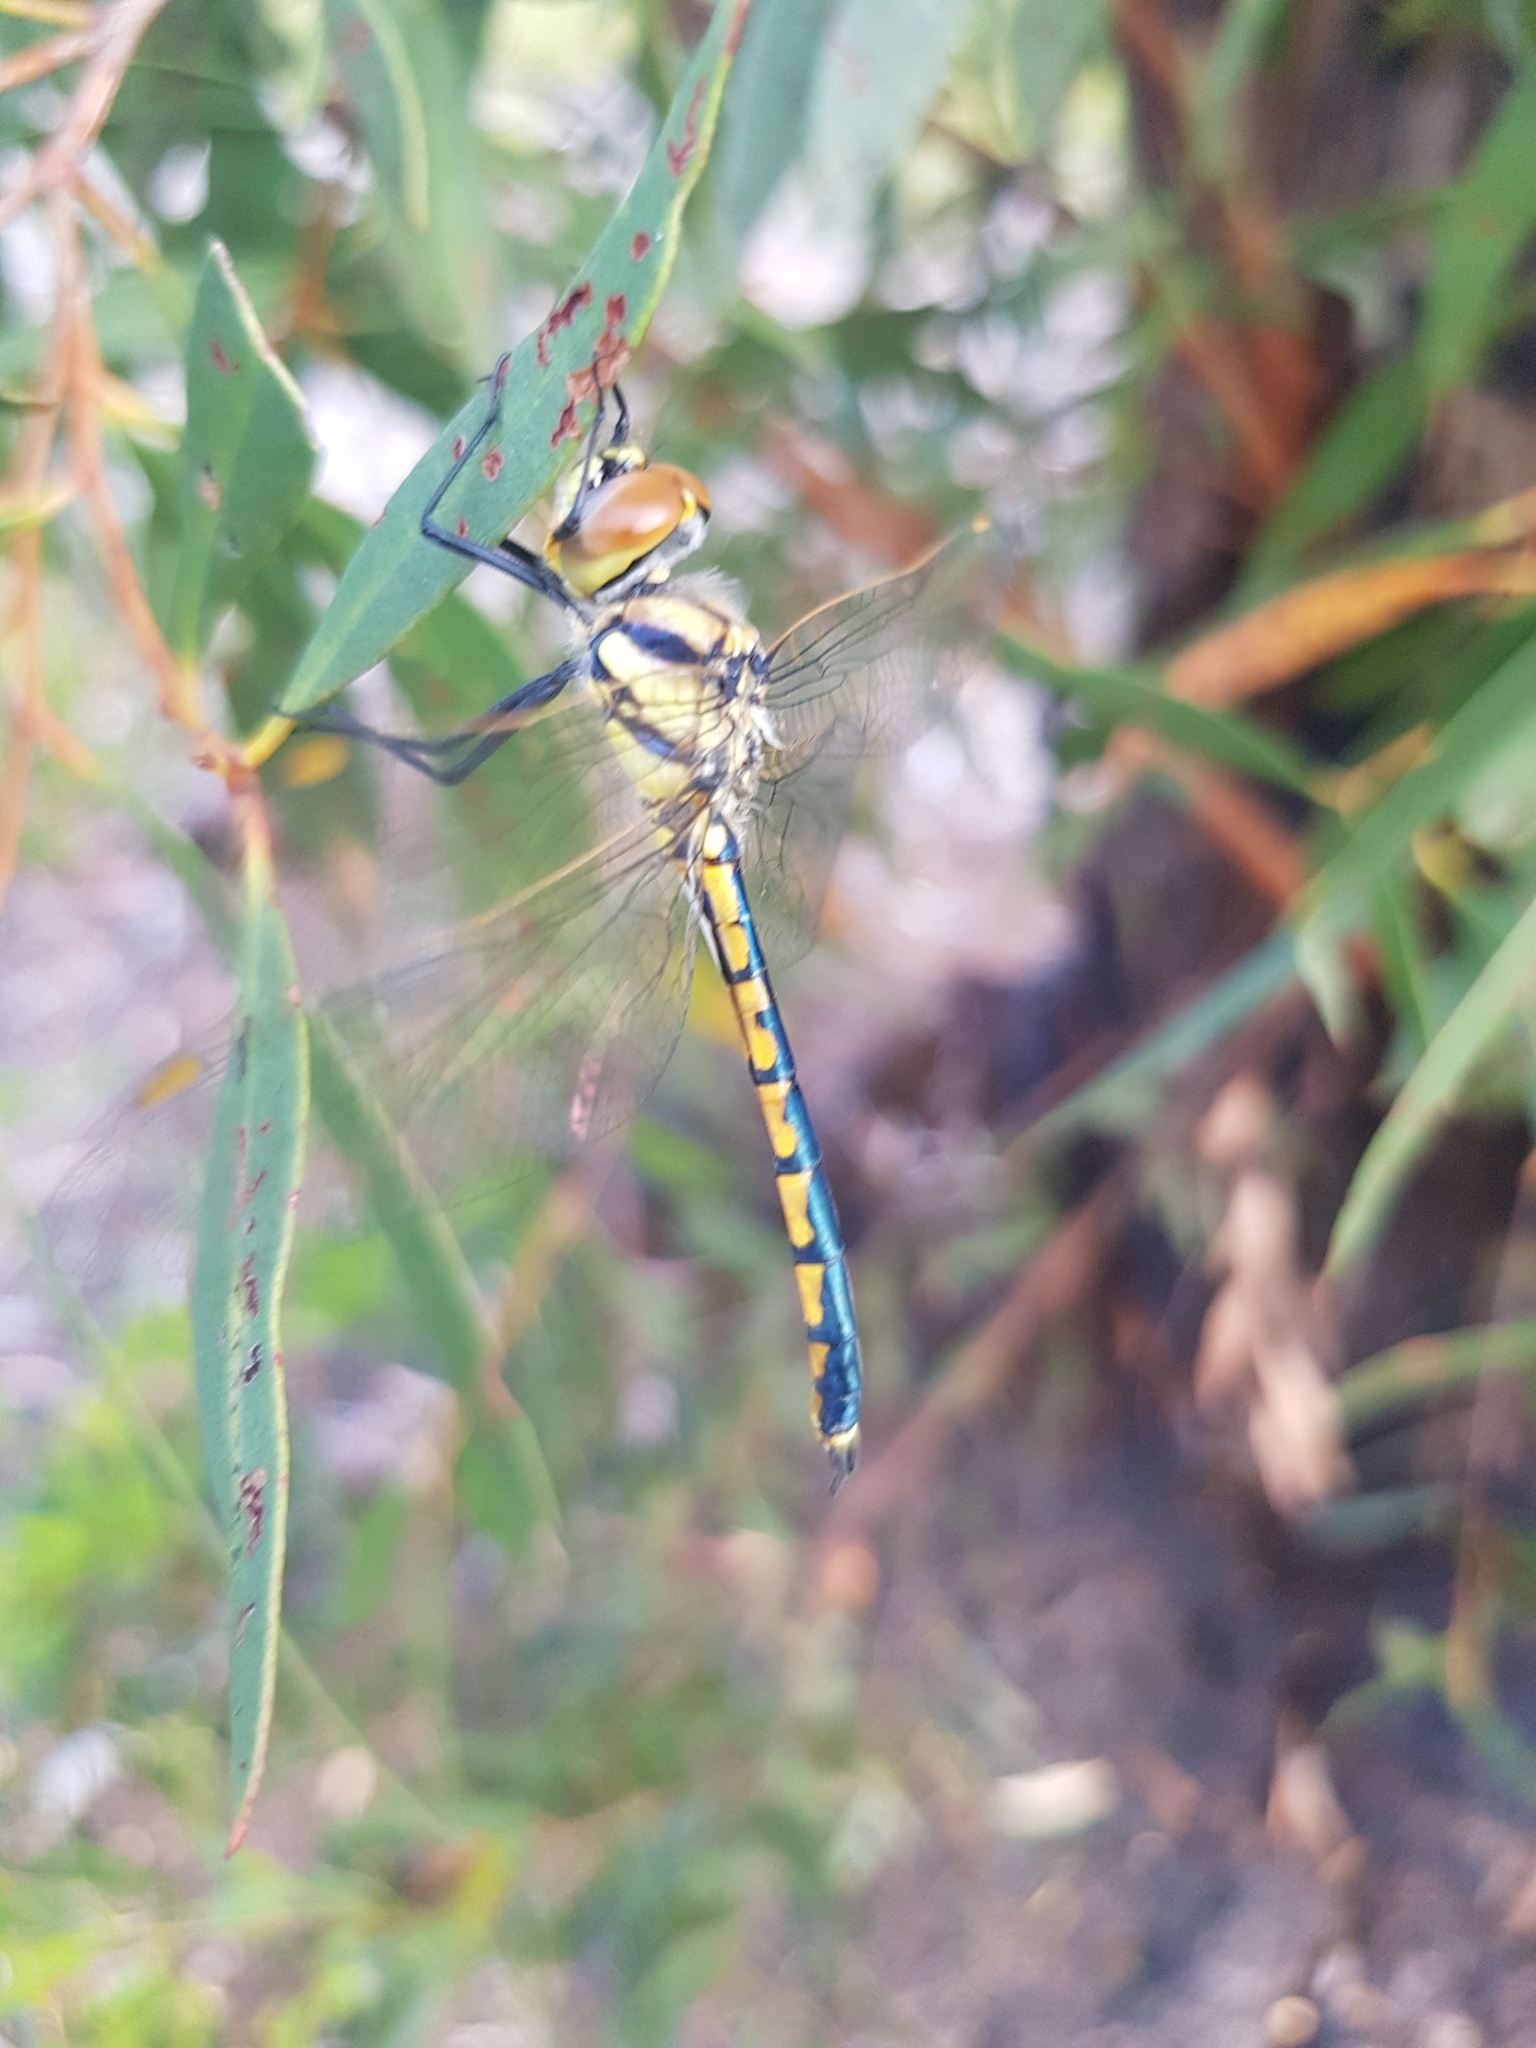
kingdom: Animalia
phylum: Arthropoda
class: Insecta
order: Odonata
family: Corduliidae
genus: Hemicordulia
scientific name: Hemicordulia tau
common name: Tau emerald
